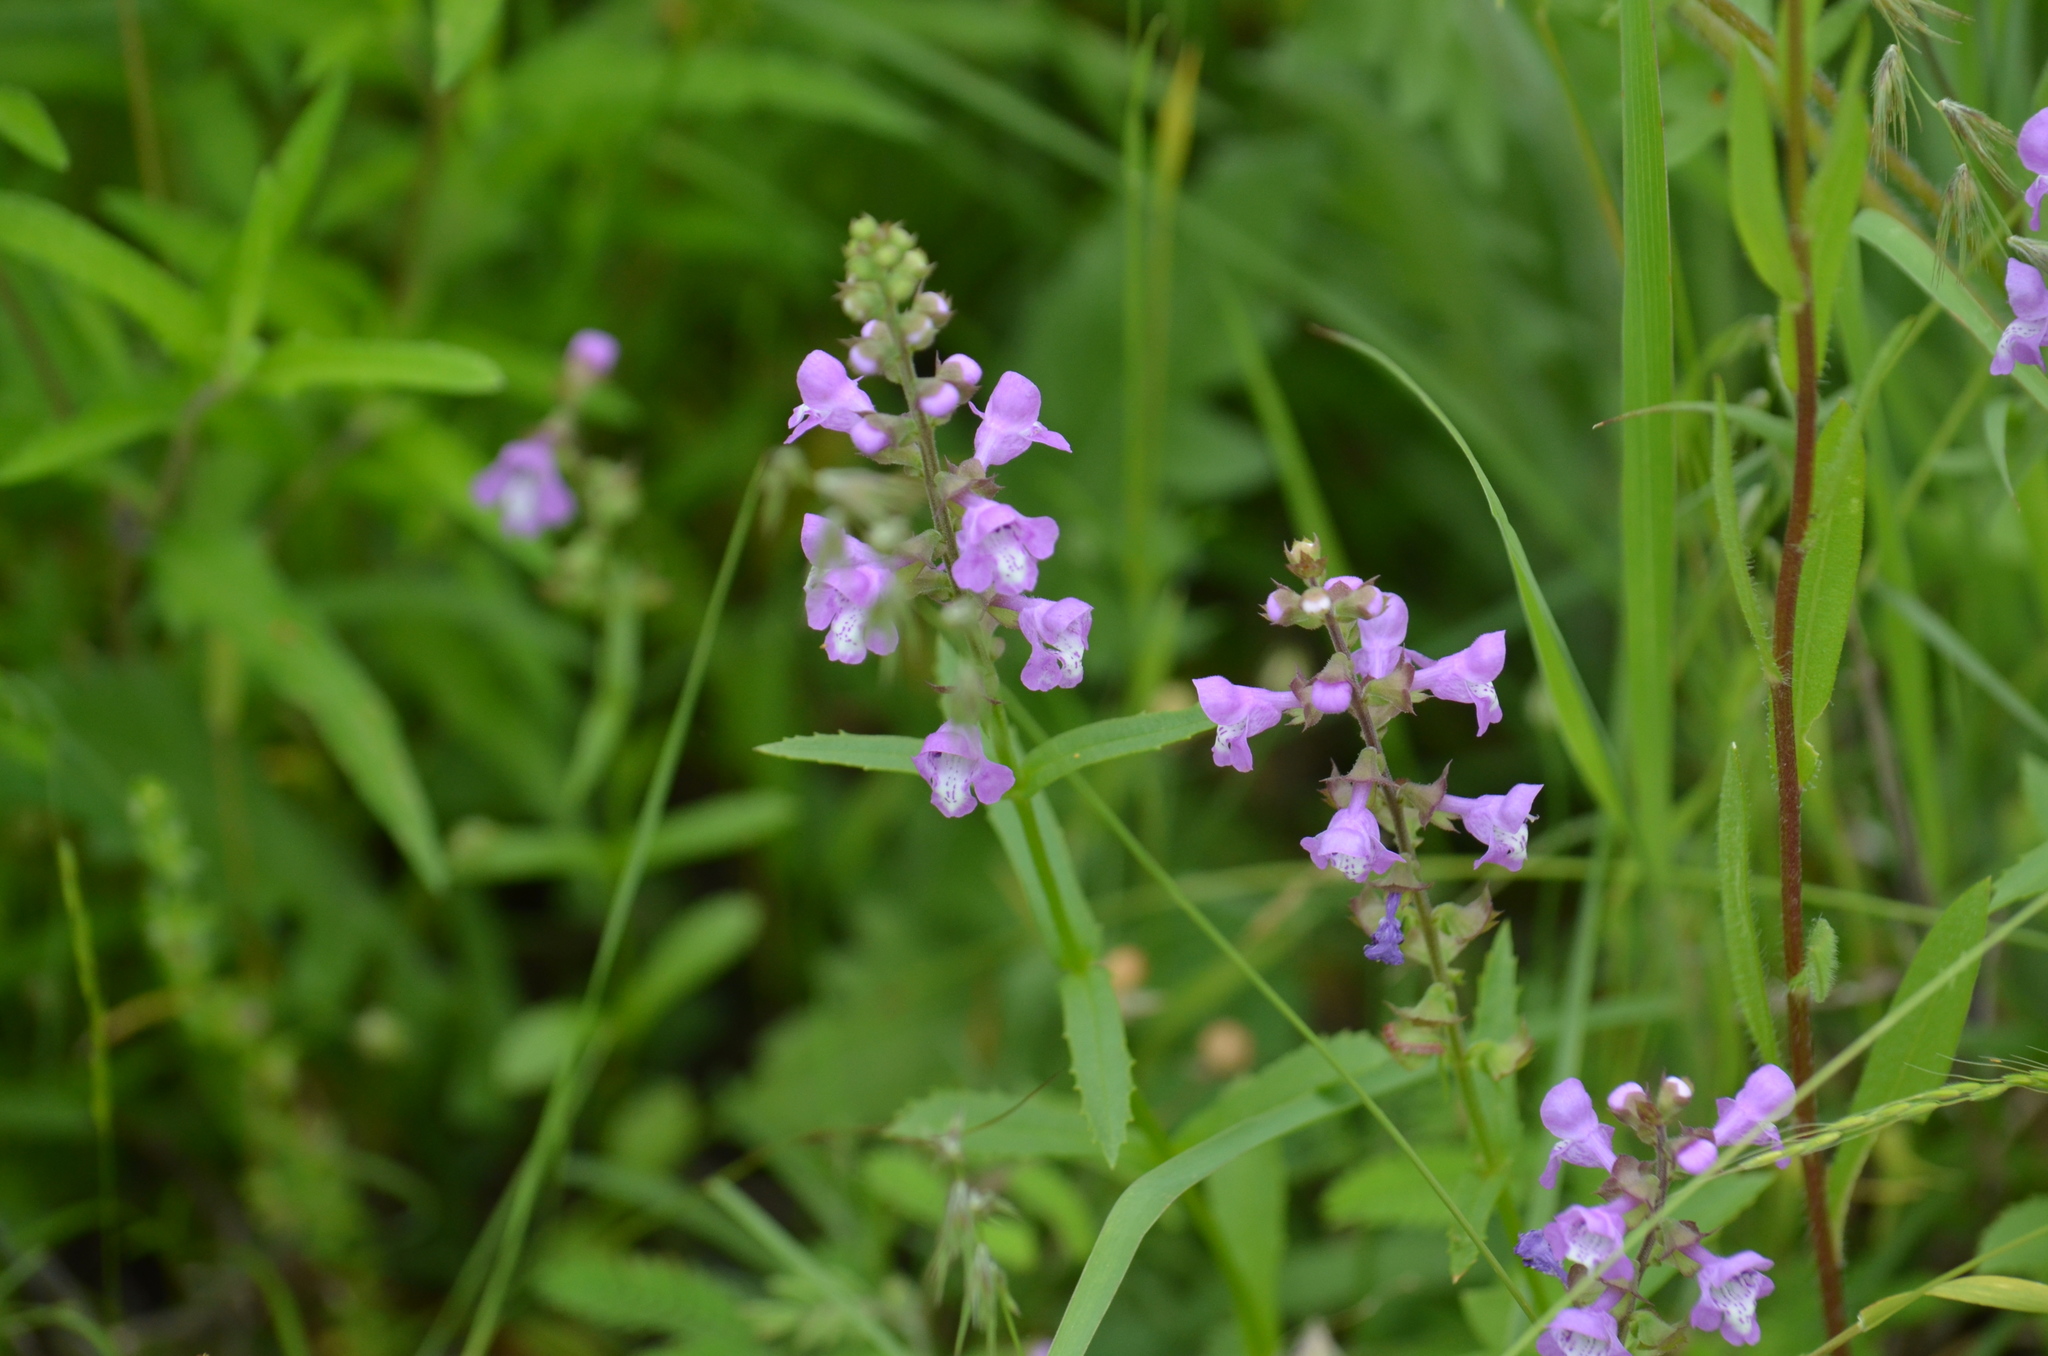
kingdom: Plantae
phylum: Tracheophyta
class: Magnoliopsida
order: Lamiales
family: Lamiaceae
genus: Warnockia
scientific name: Warnockia scutellarioides
